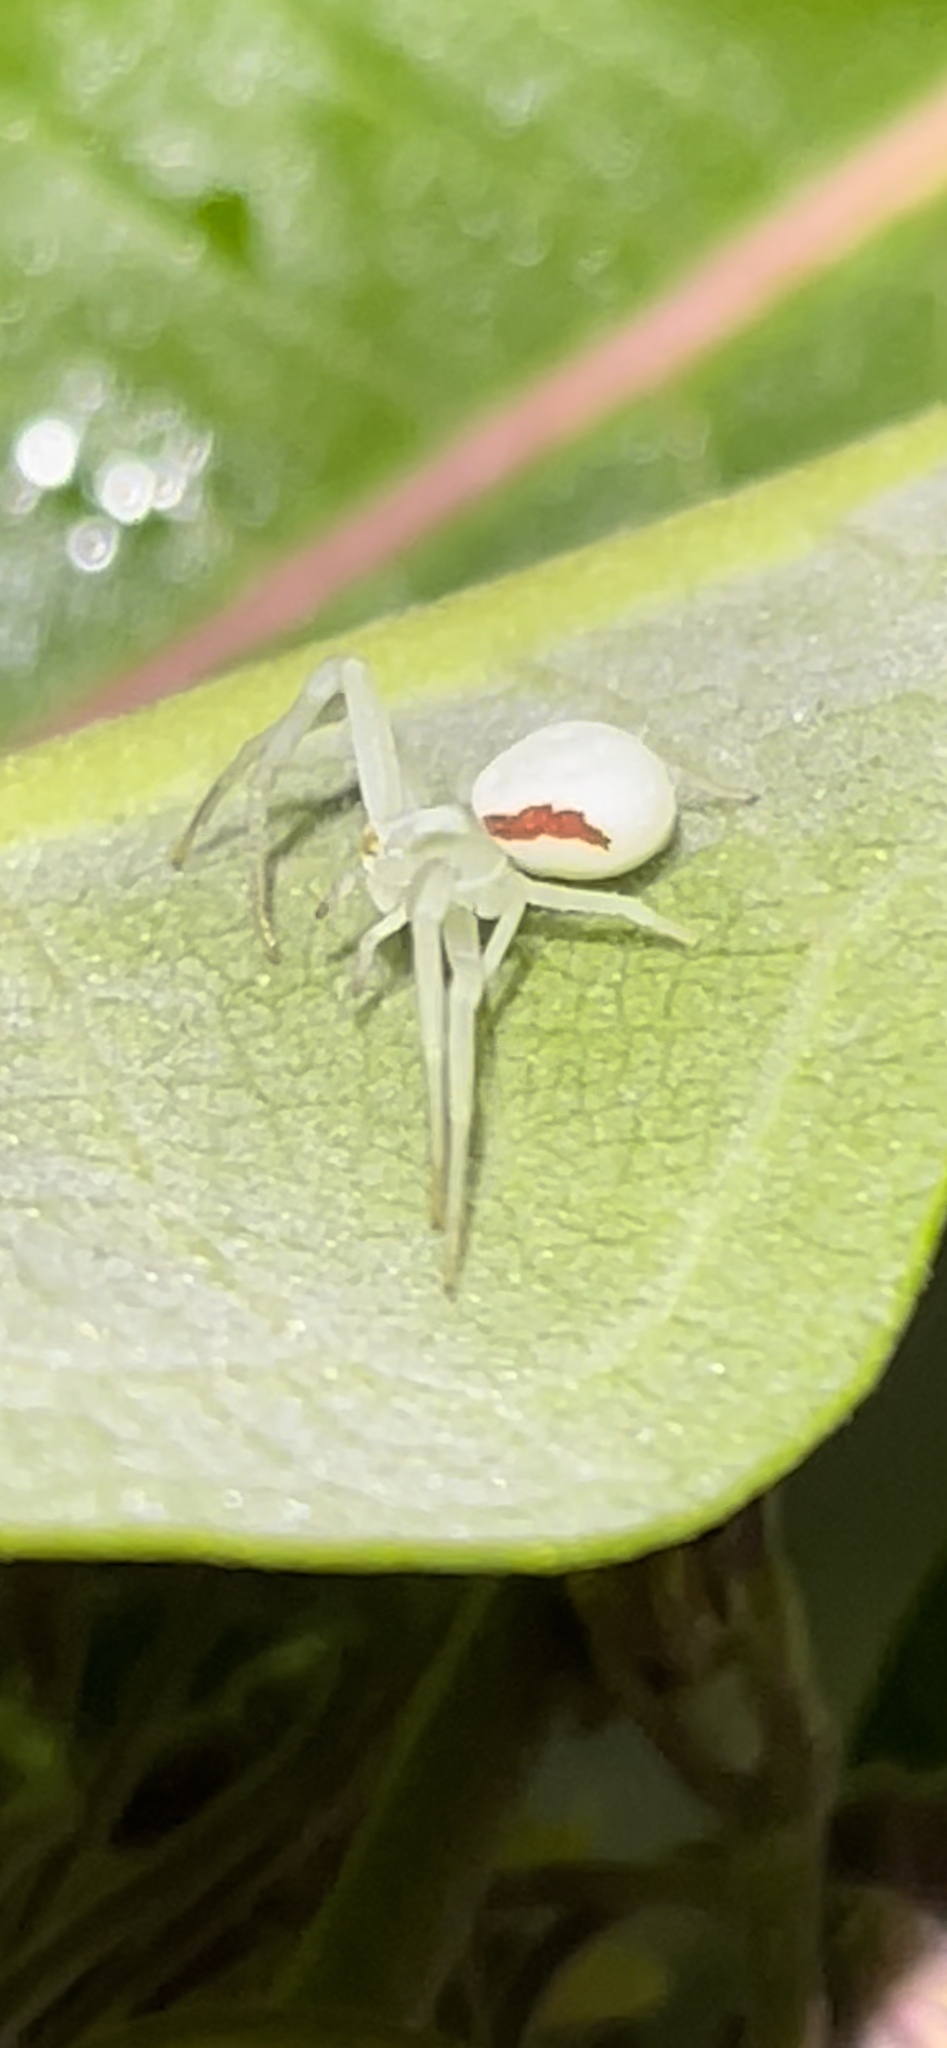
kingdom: Animalia
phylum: Arthropoda
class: Arachnida
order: Araneae
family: Thomisidae
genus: Misumena
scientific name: Misumena vatia
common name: Goldenrod crab spider
